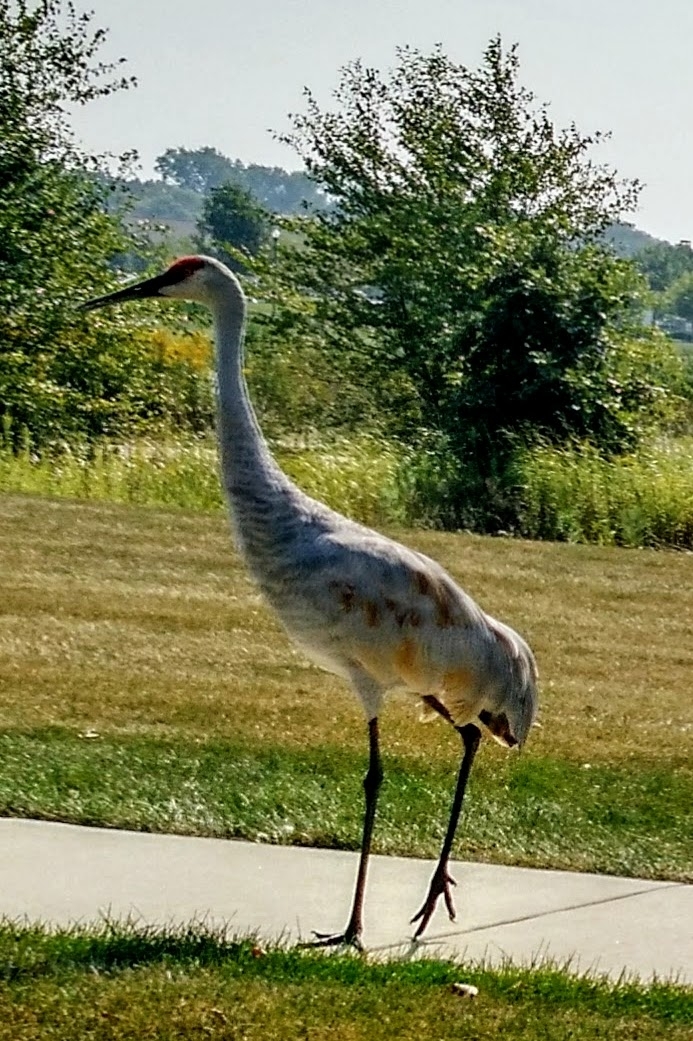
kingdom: Animalia
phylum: Chordata
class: Aves
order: Gruiformes
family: Gruidae
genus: Grus
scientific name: Grus canadensis
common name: Sandhill crane
